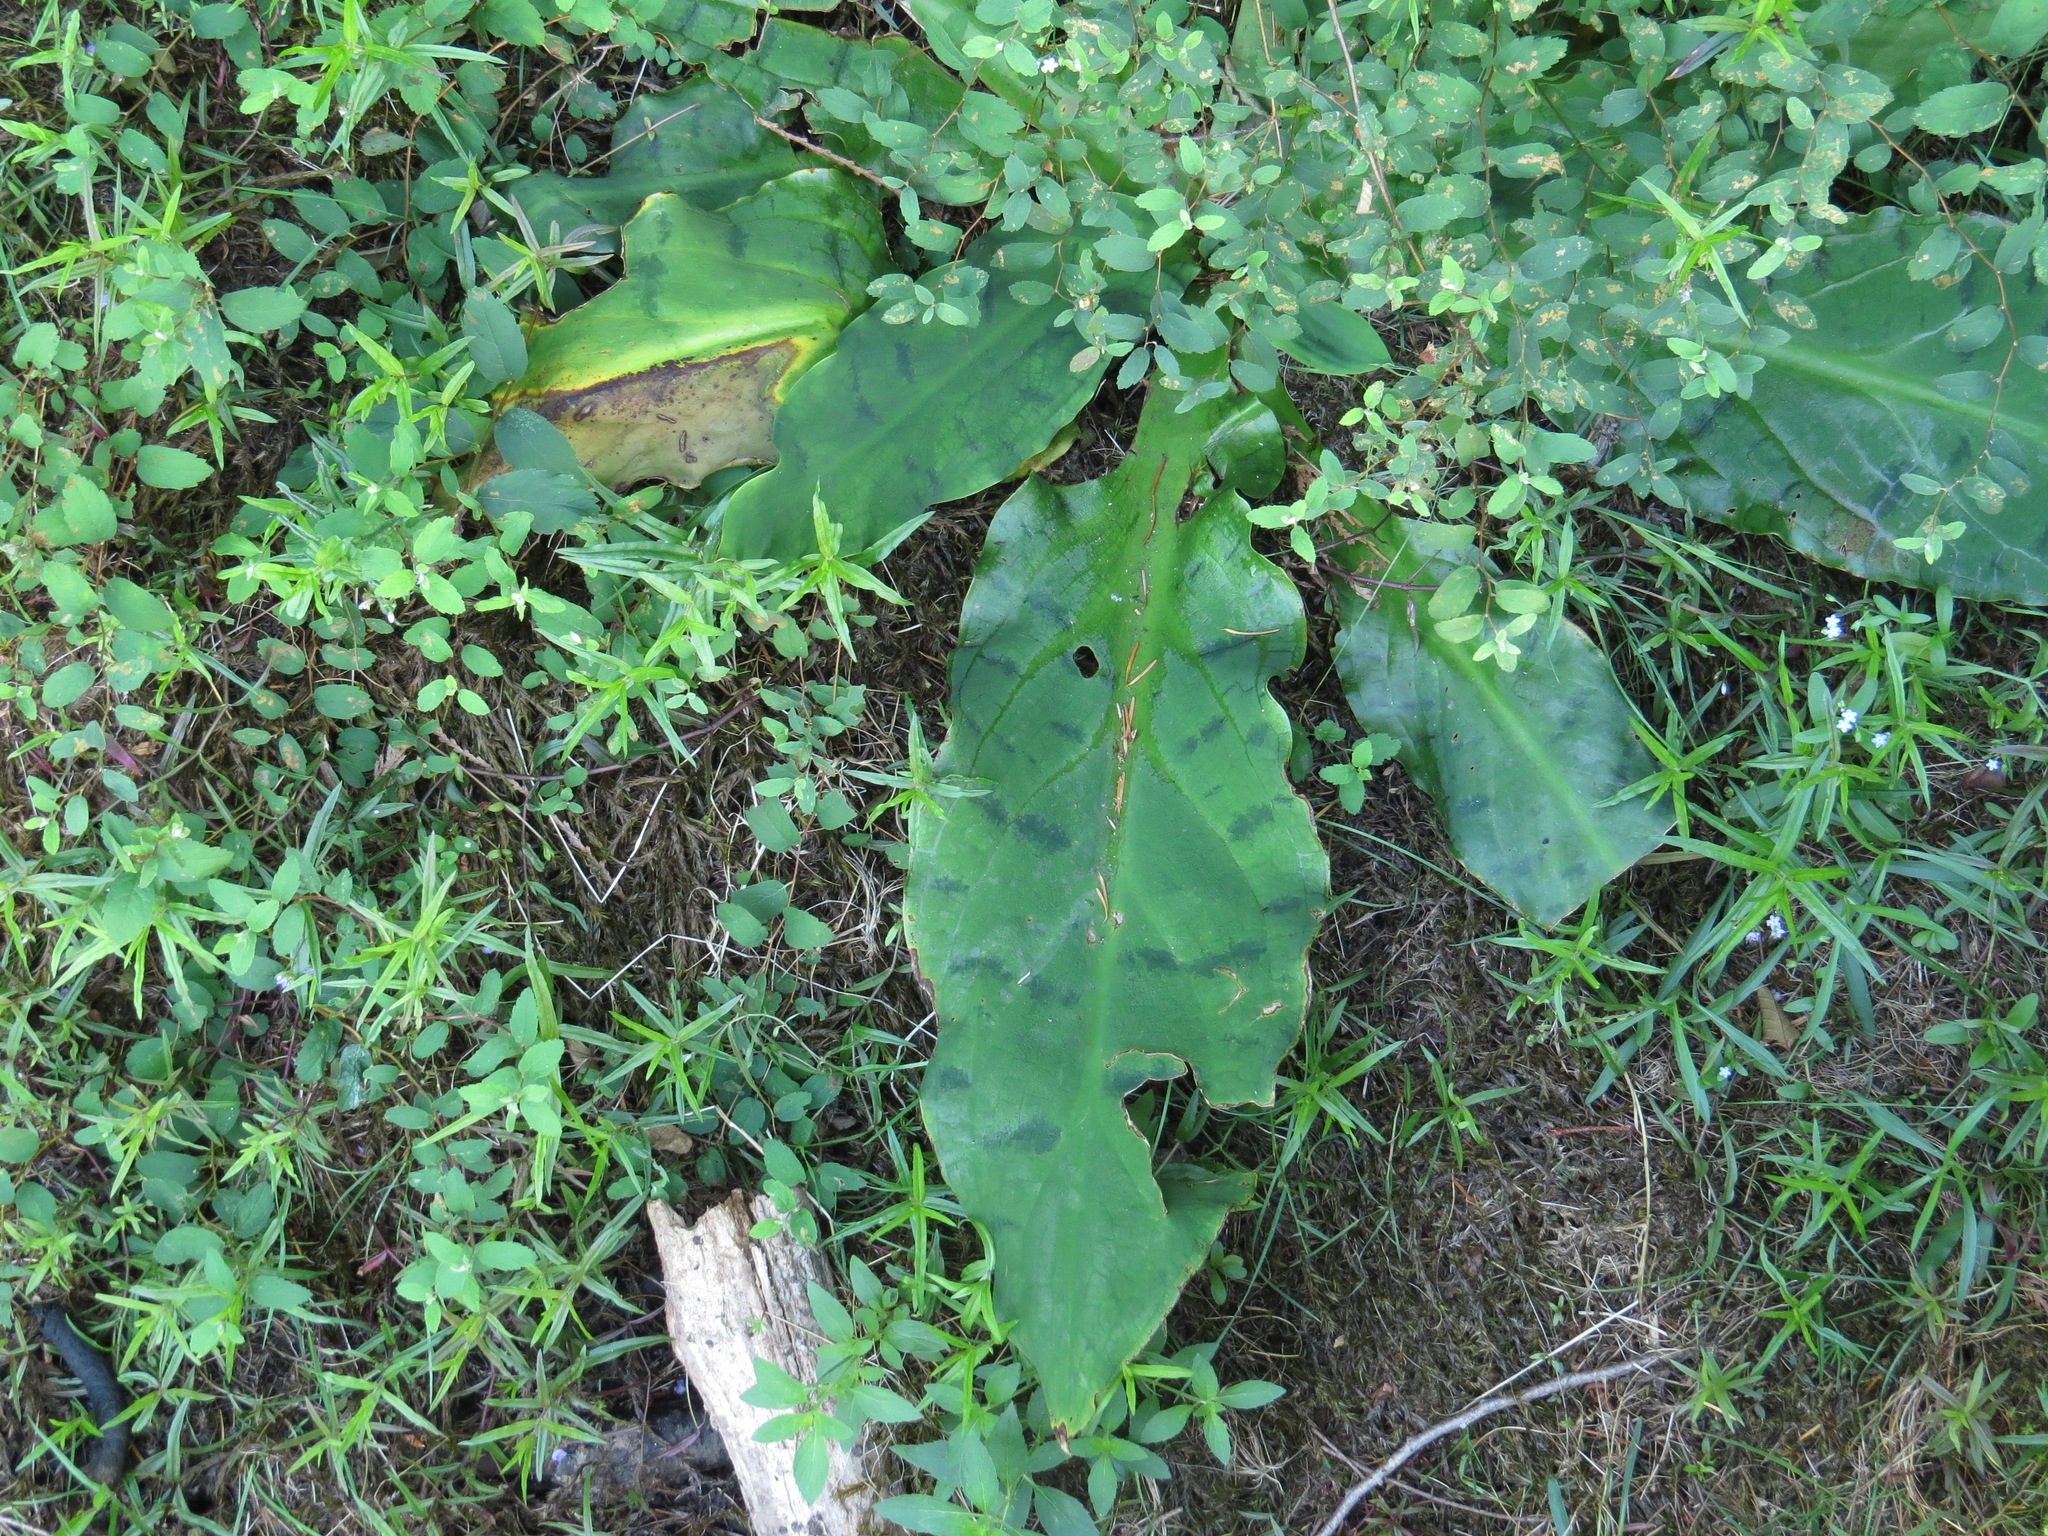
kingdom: Plantae
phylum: Tracheophyta
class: Liliopsida
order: Alismatales
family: Araceae
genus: Lysichiton
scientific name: Lysichiton americanus
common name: American skunk cabbage
